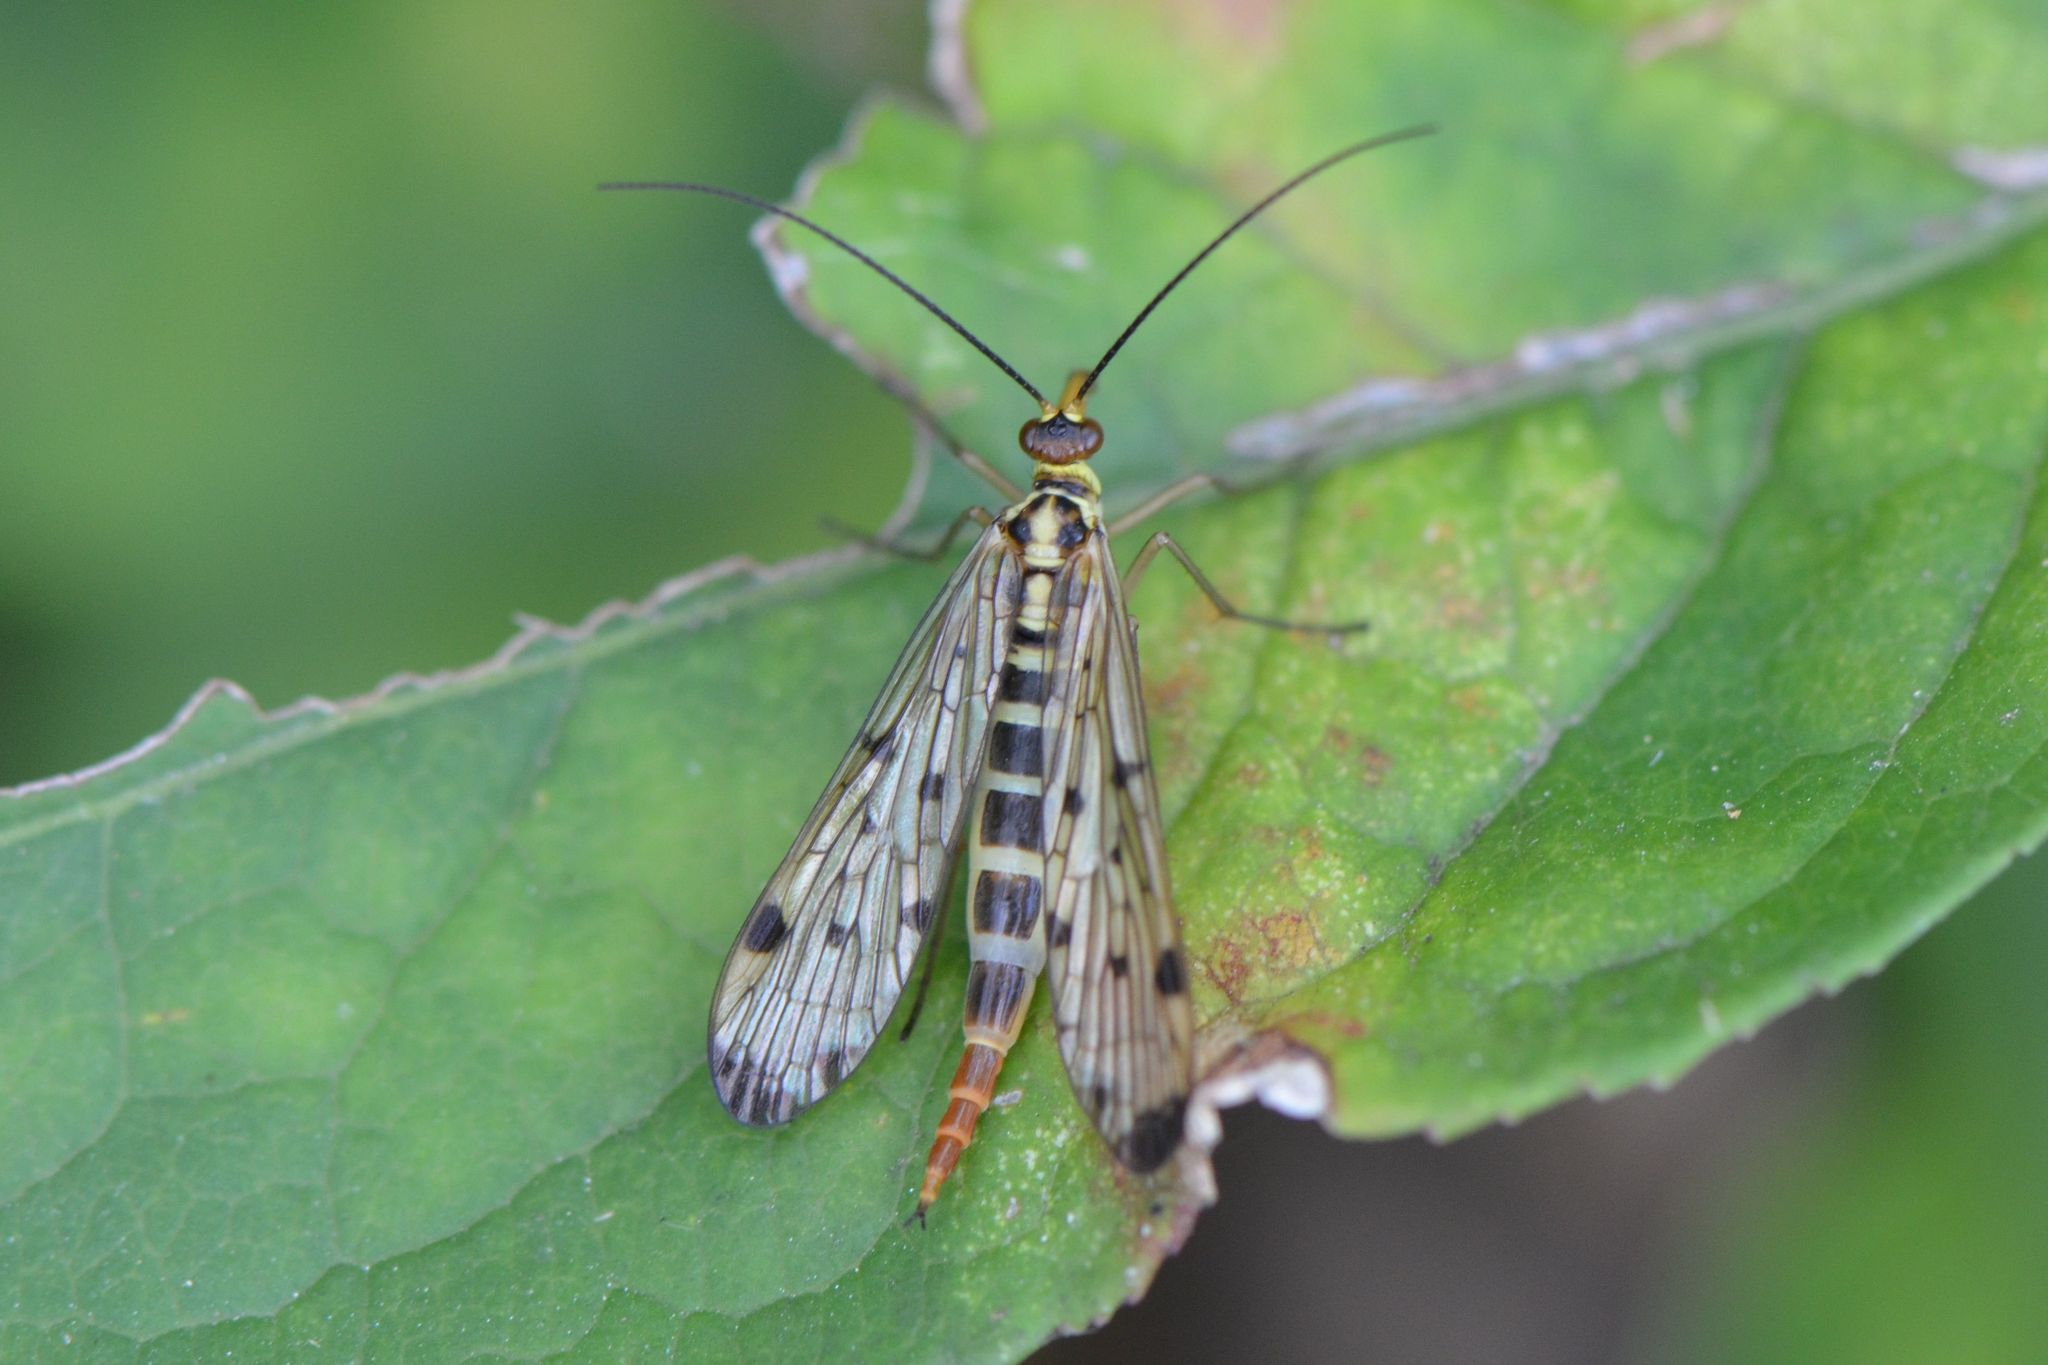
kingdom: Animalia
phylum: Arthropoda
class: Insecta
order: Mecoptera
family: Panorpidae
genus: Panorpa
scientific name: Panorpa germanica
